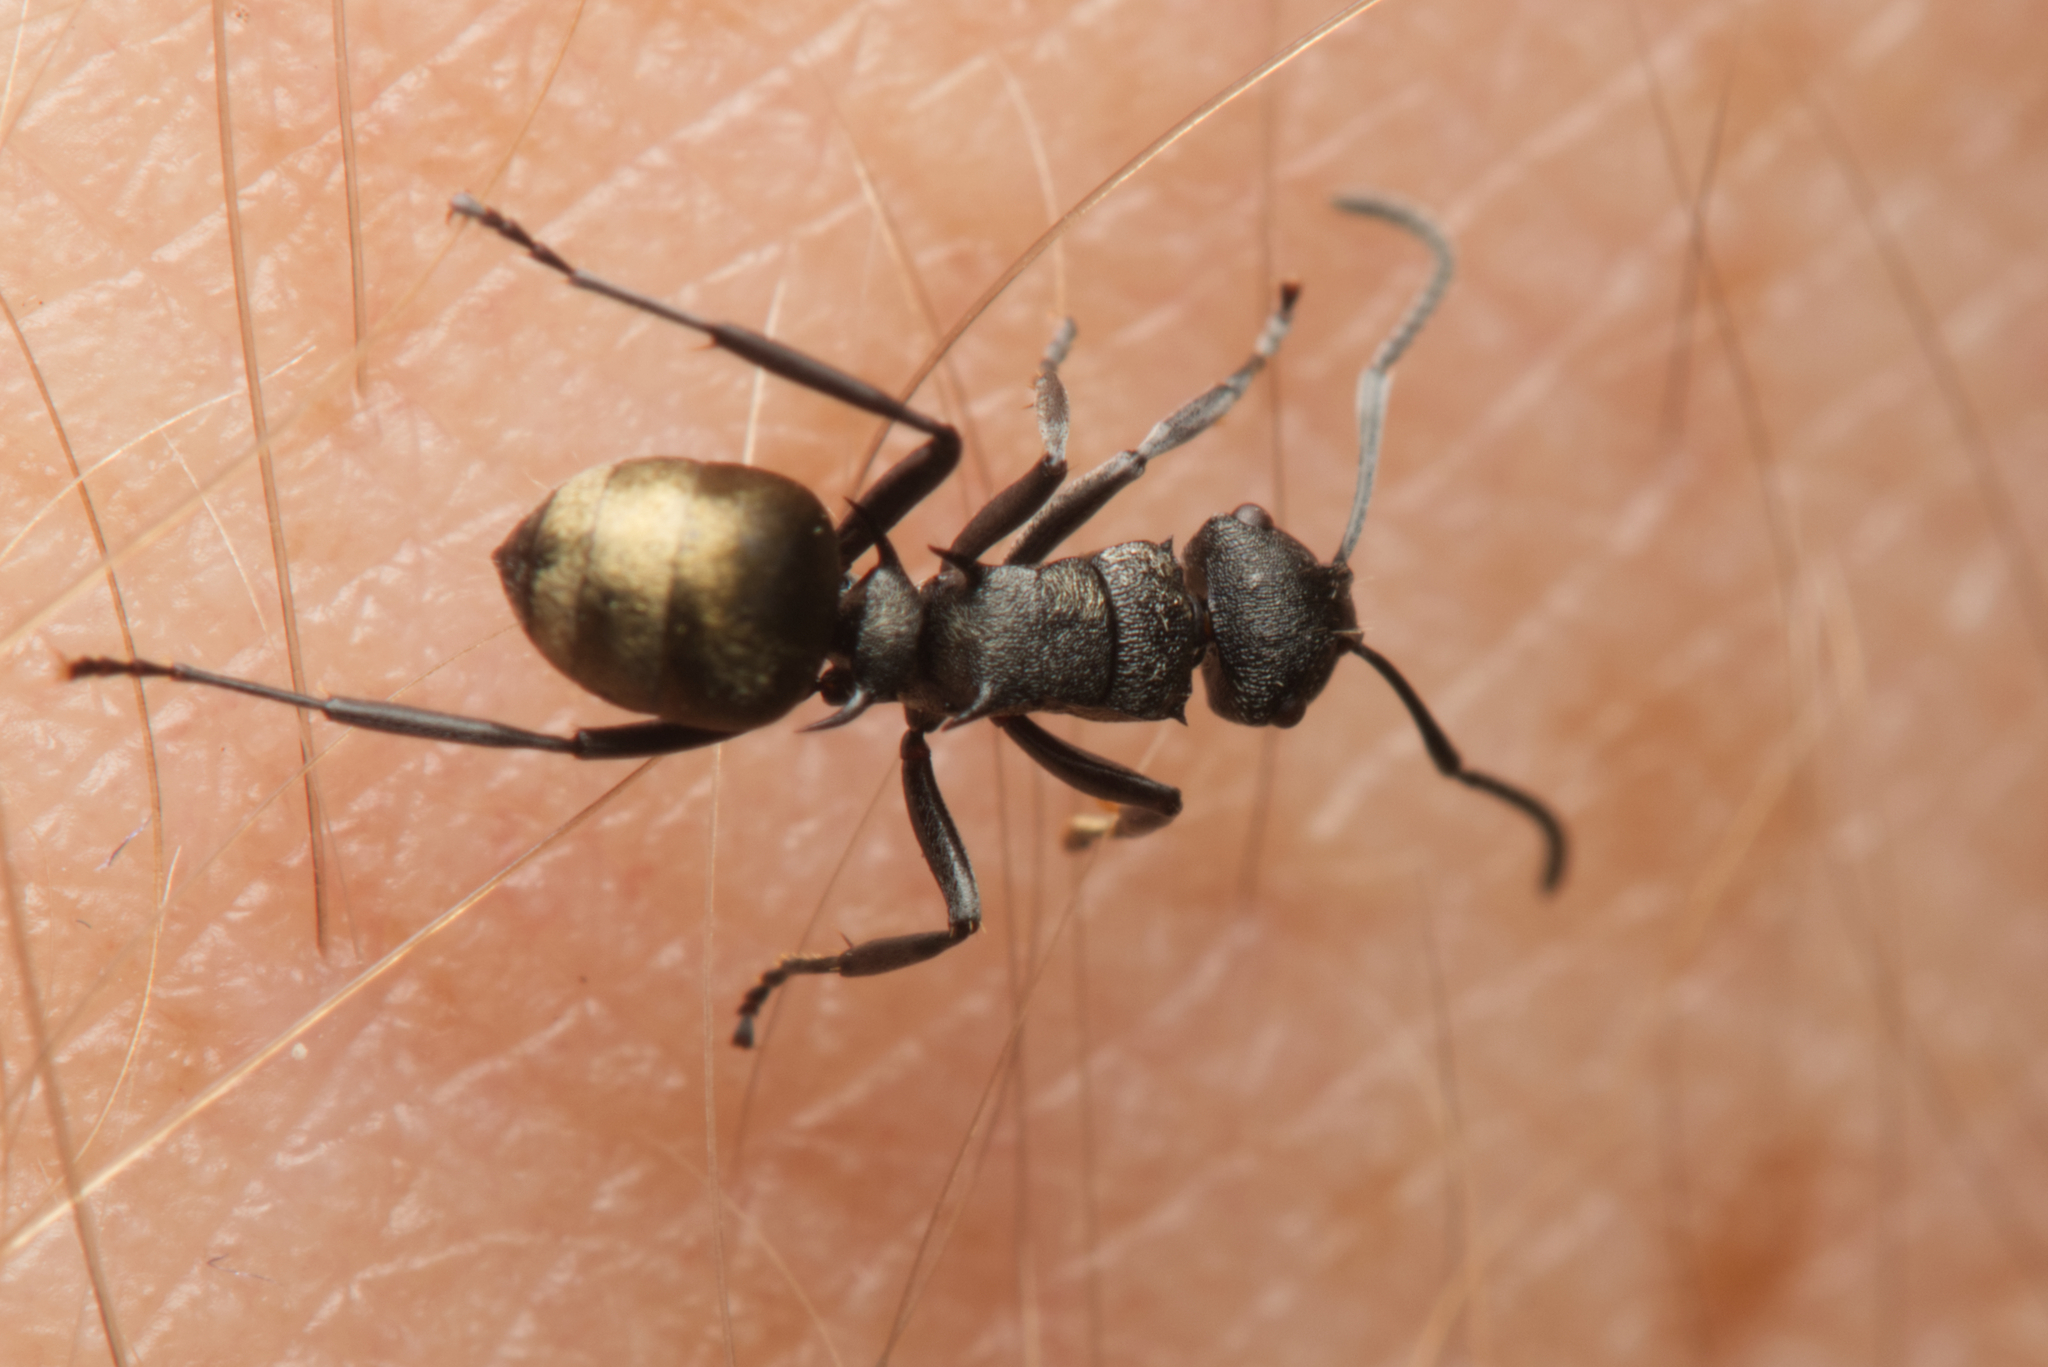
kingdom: Animalia
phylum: Arthropoda
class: Insecta
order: Hymenoptera
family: Formicidae
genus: Polyrhachis
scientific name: Polyrhachis mjobergi
